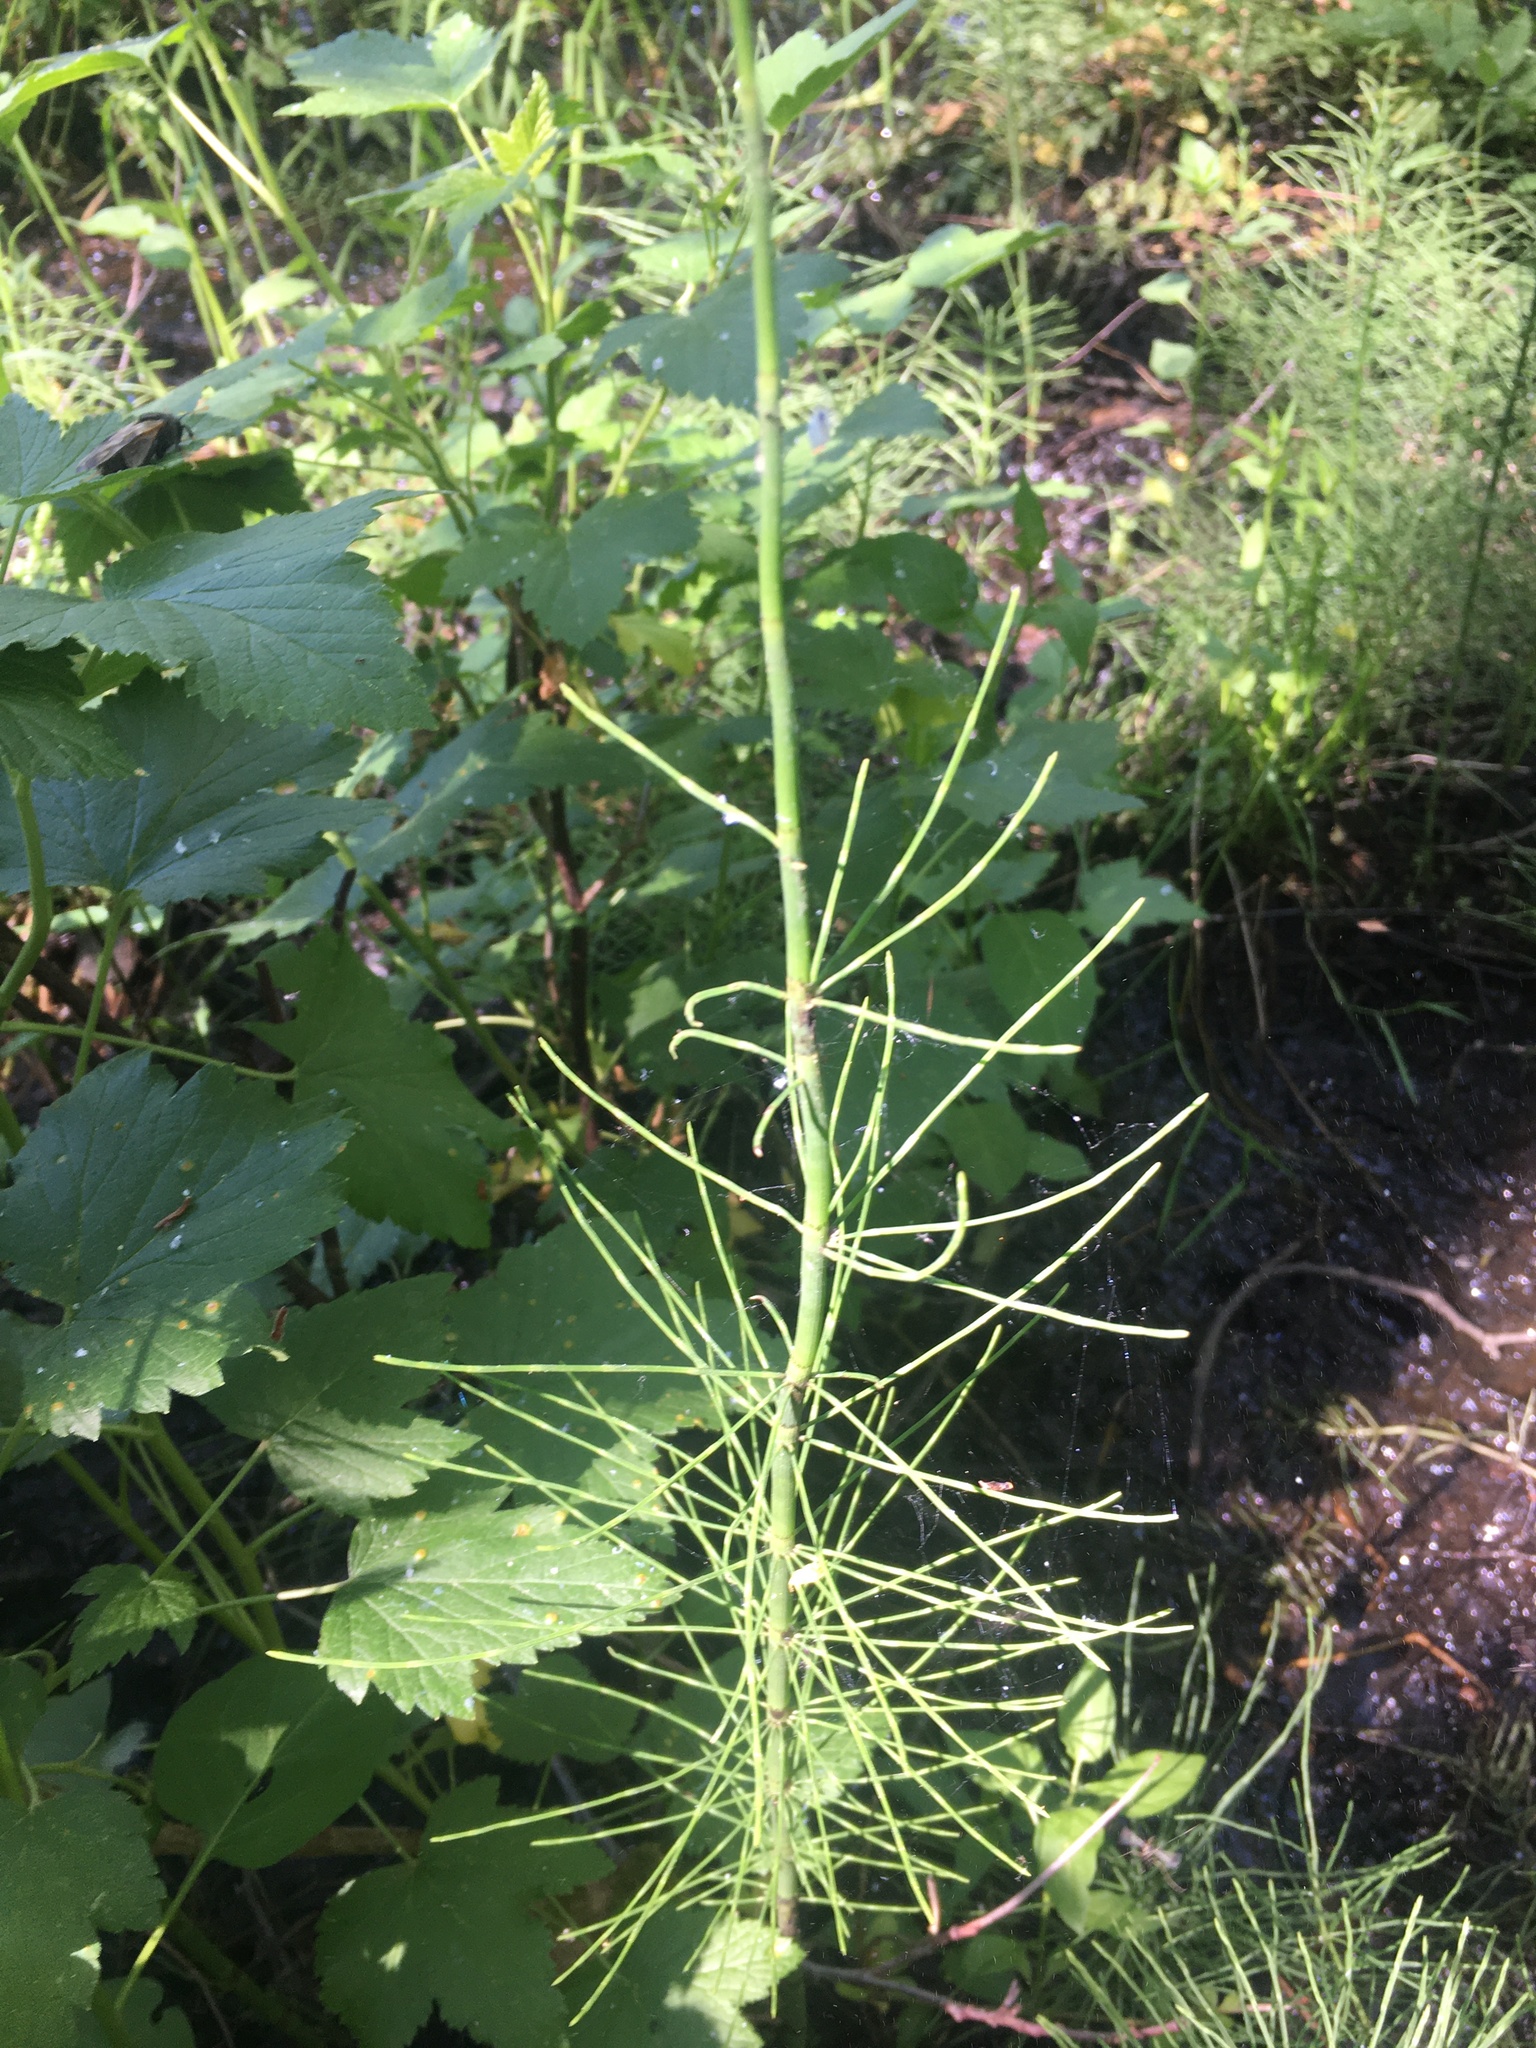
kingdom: Plantae
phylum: Tracheophyta
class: Polypodiopsida
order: Equisetales
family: Equisetaceae
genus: Equisetum
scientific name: Equisetum fluviatile
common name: Water horsetail
